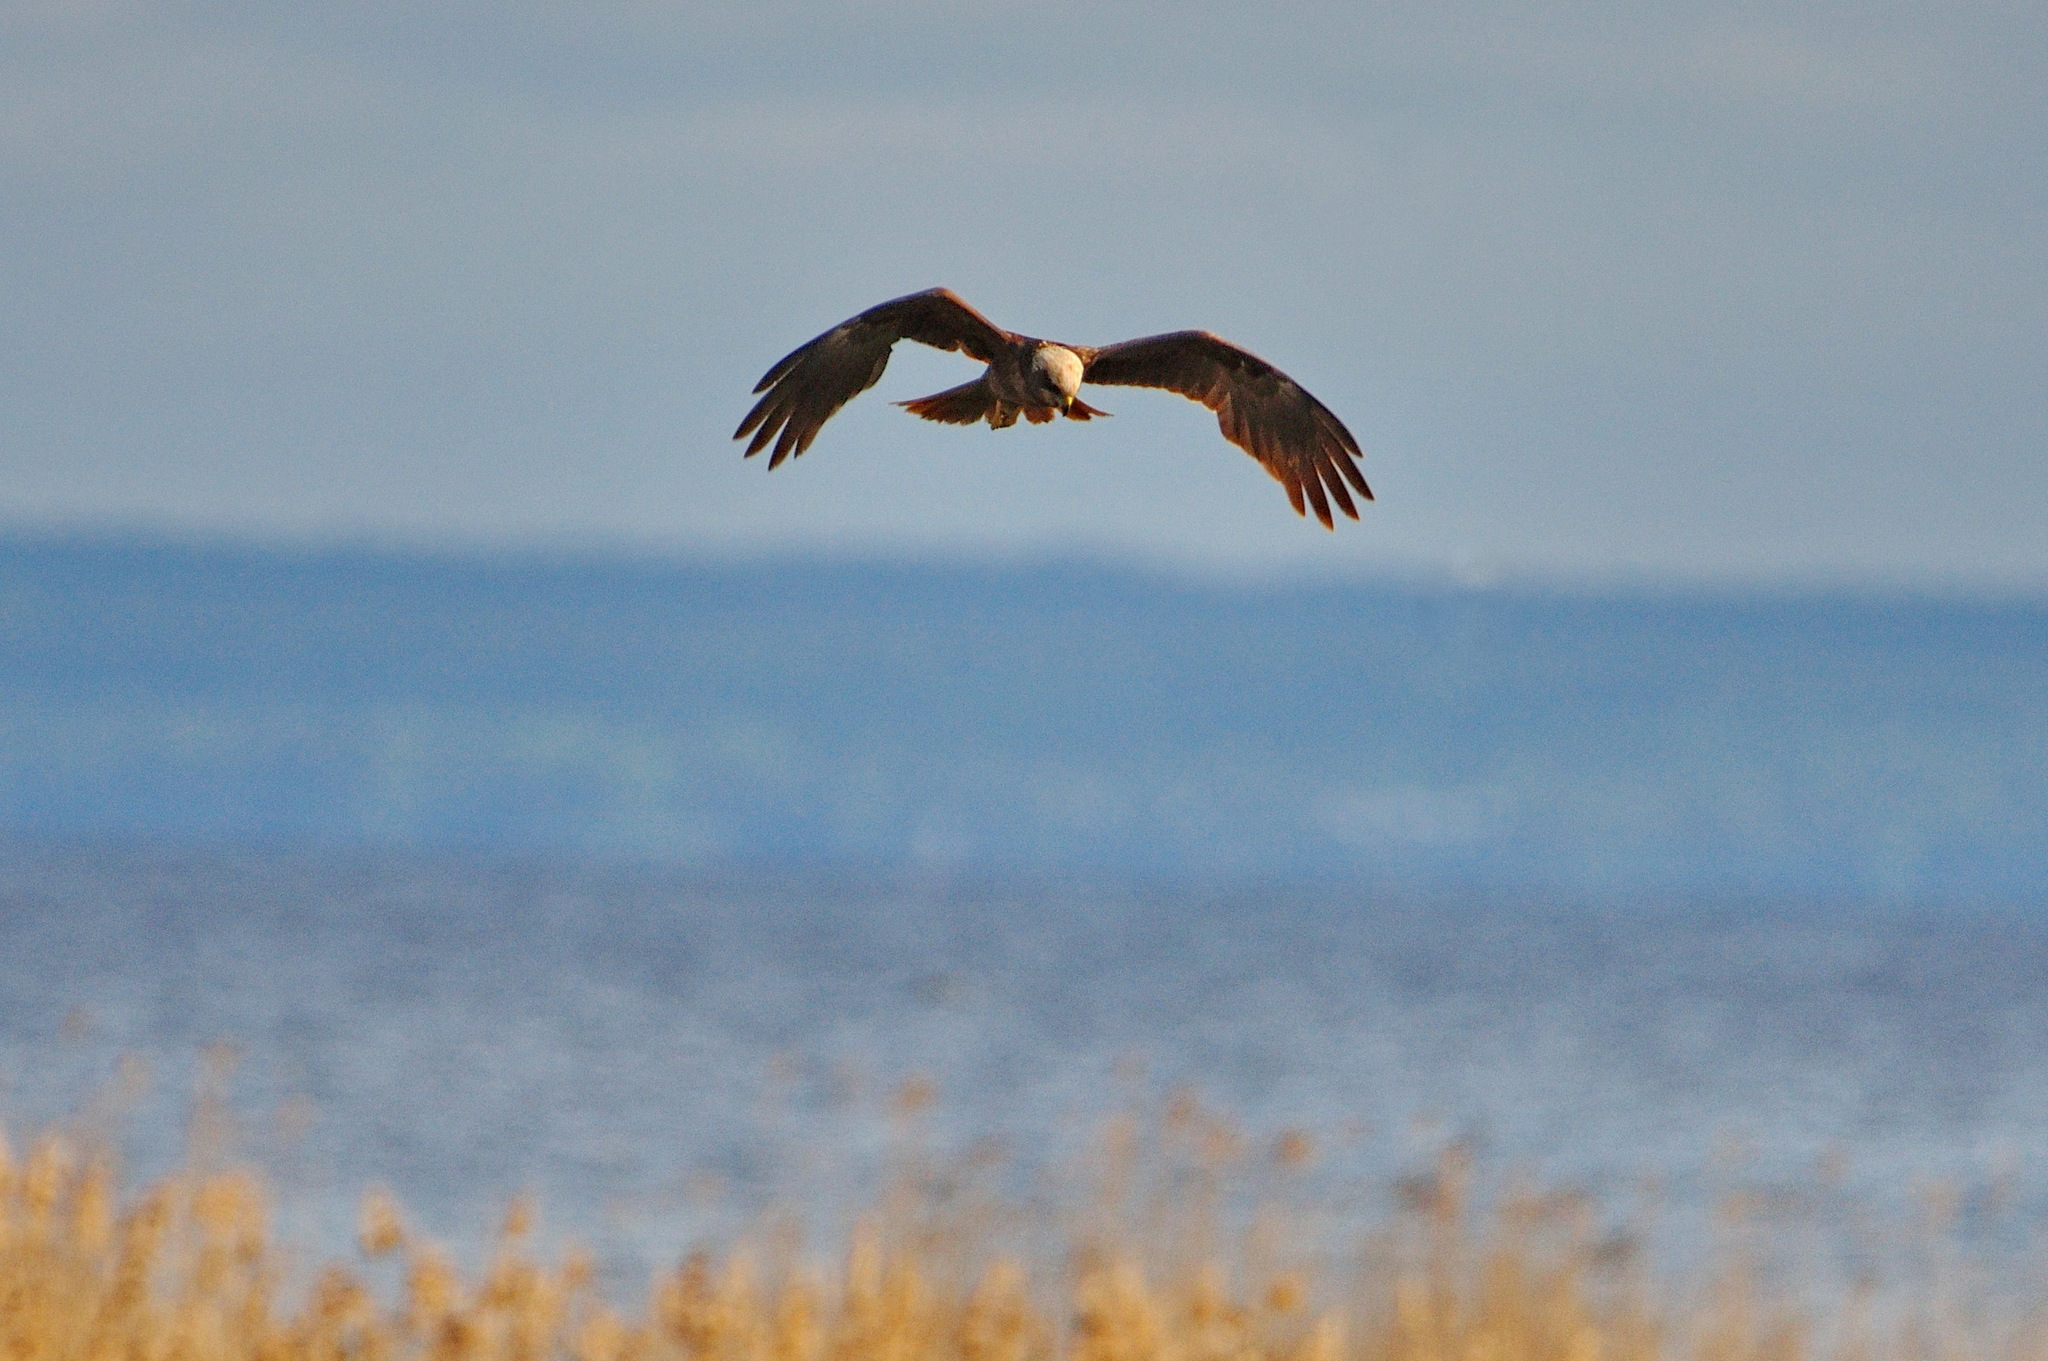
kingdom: Animalia
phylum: Chordata
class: Aves
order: Accipitriformes
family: Accipitridae
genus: Circus
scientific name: Circus aeruginosus
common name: Western marsh harrier
